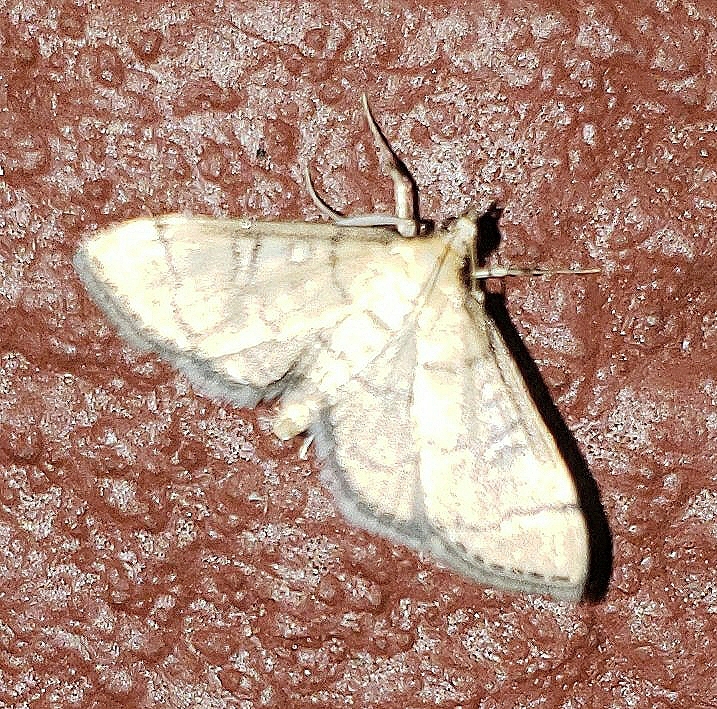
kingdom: Animalia
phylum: Arthropoda
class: Insecta
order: Lepidoptera
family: Crambidae
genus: Lamprosema
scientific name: Lamprosema Blepharomastix ranalis
